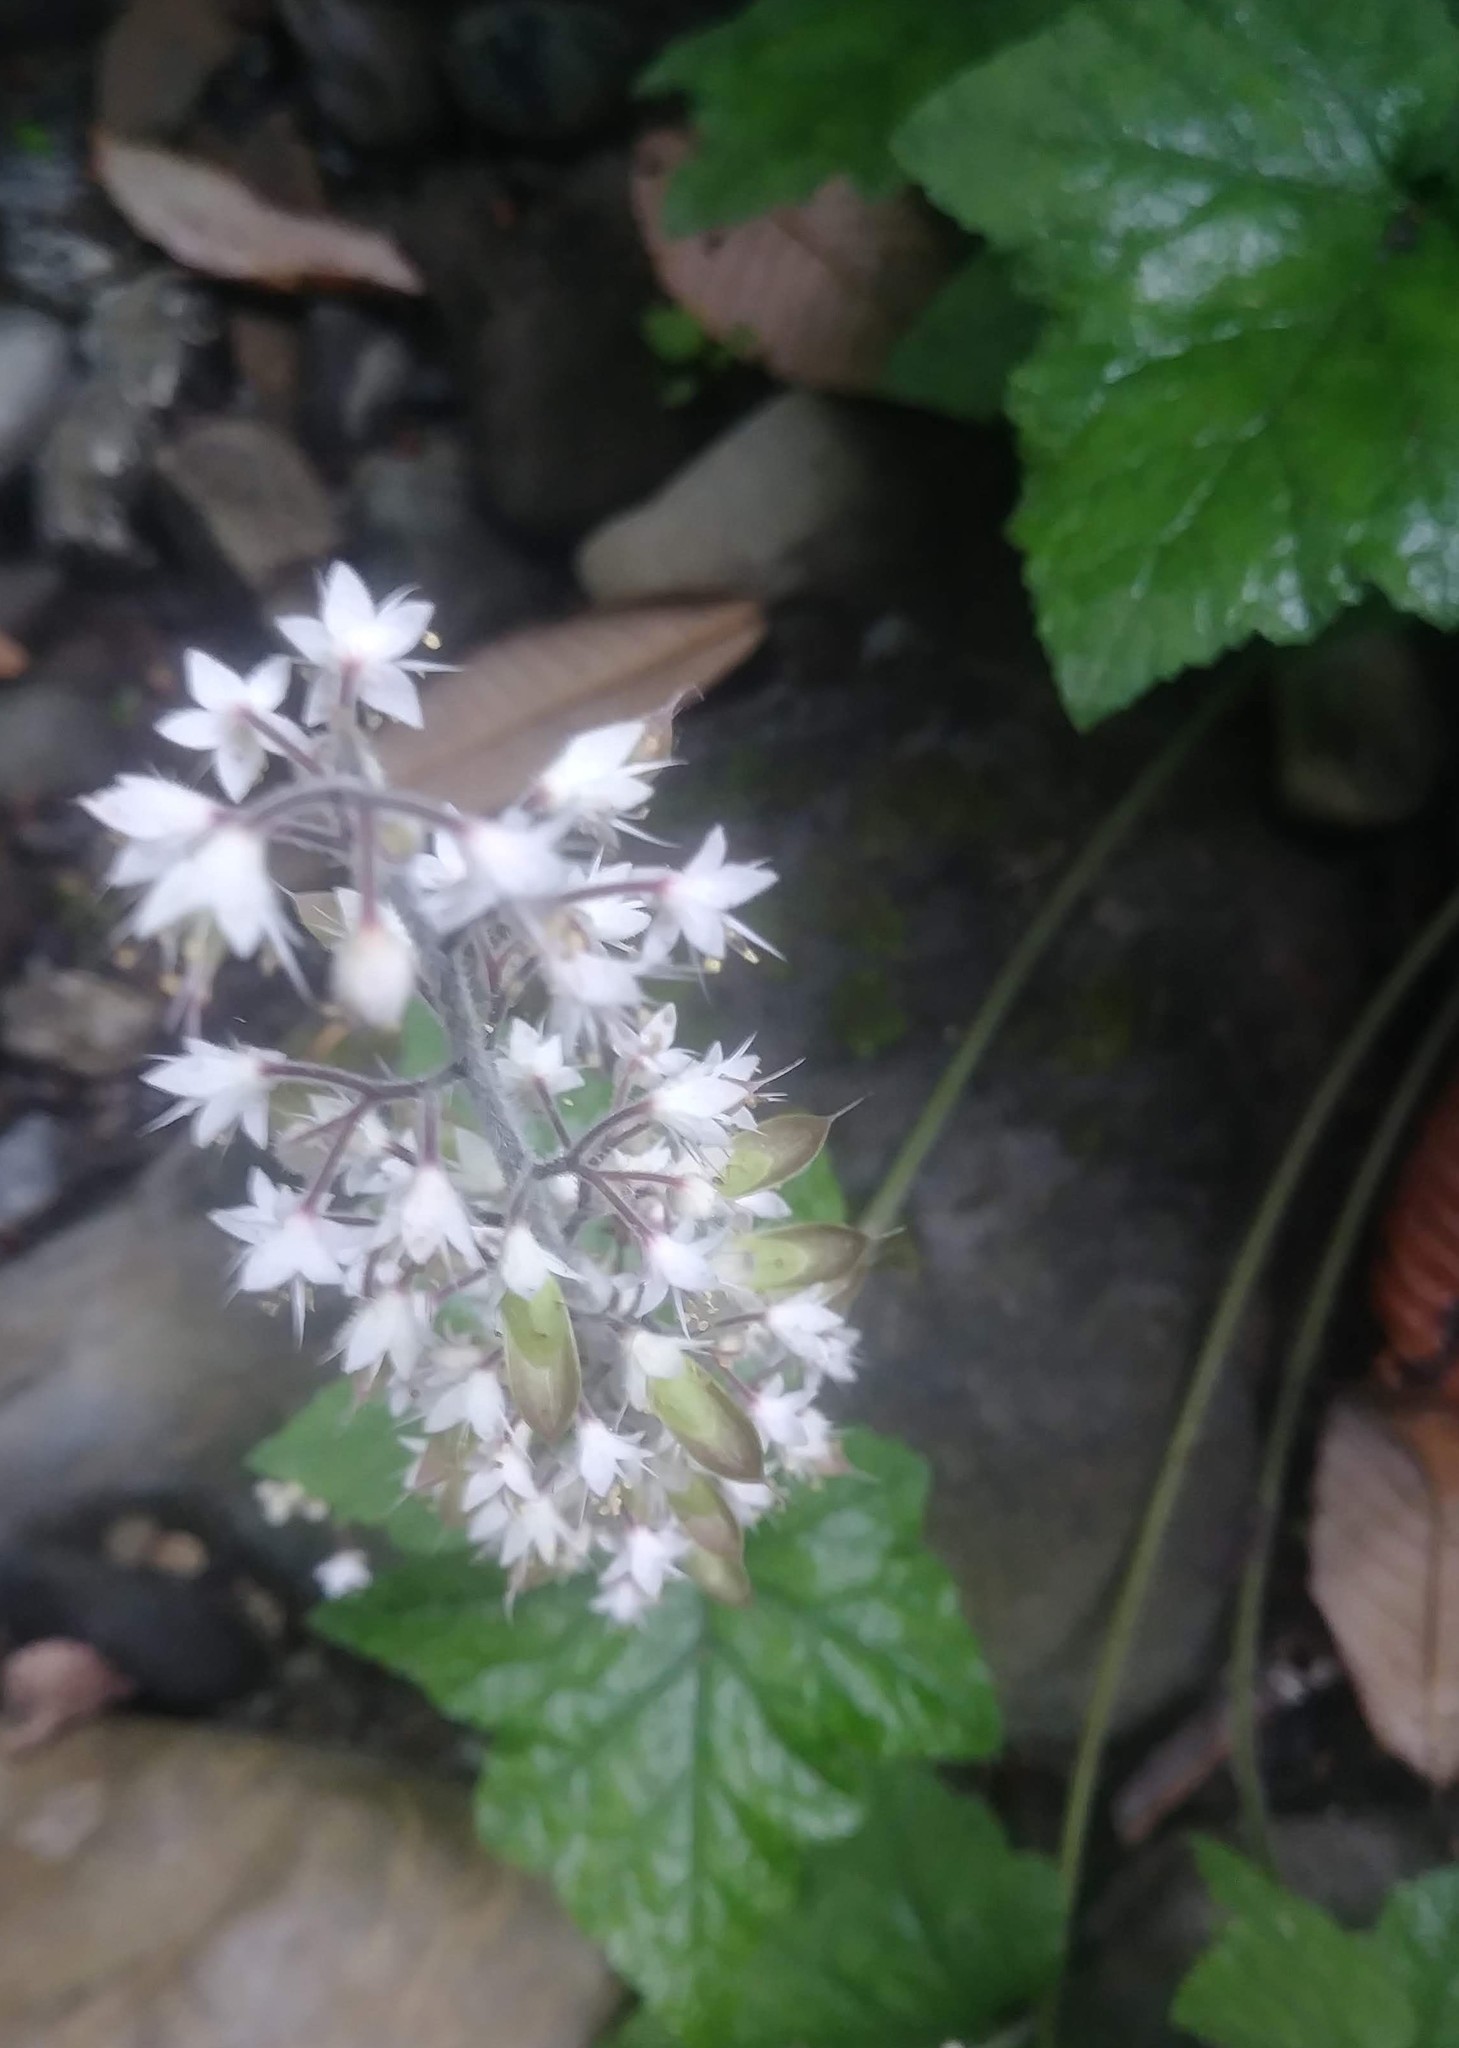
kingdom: Plantae
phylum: Tracheophyta
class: Magnoliopsida
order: Saxifragales
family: Saxifragaceae
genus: Tiarella
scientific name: Tiarella trifoliata
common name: Sugar-scoop
